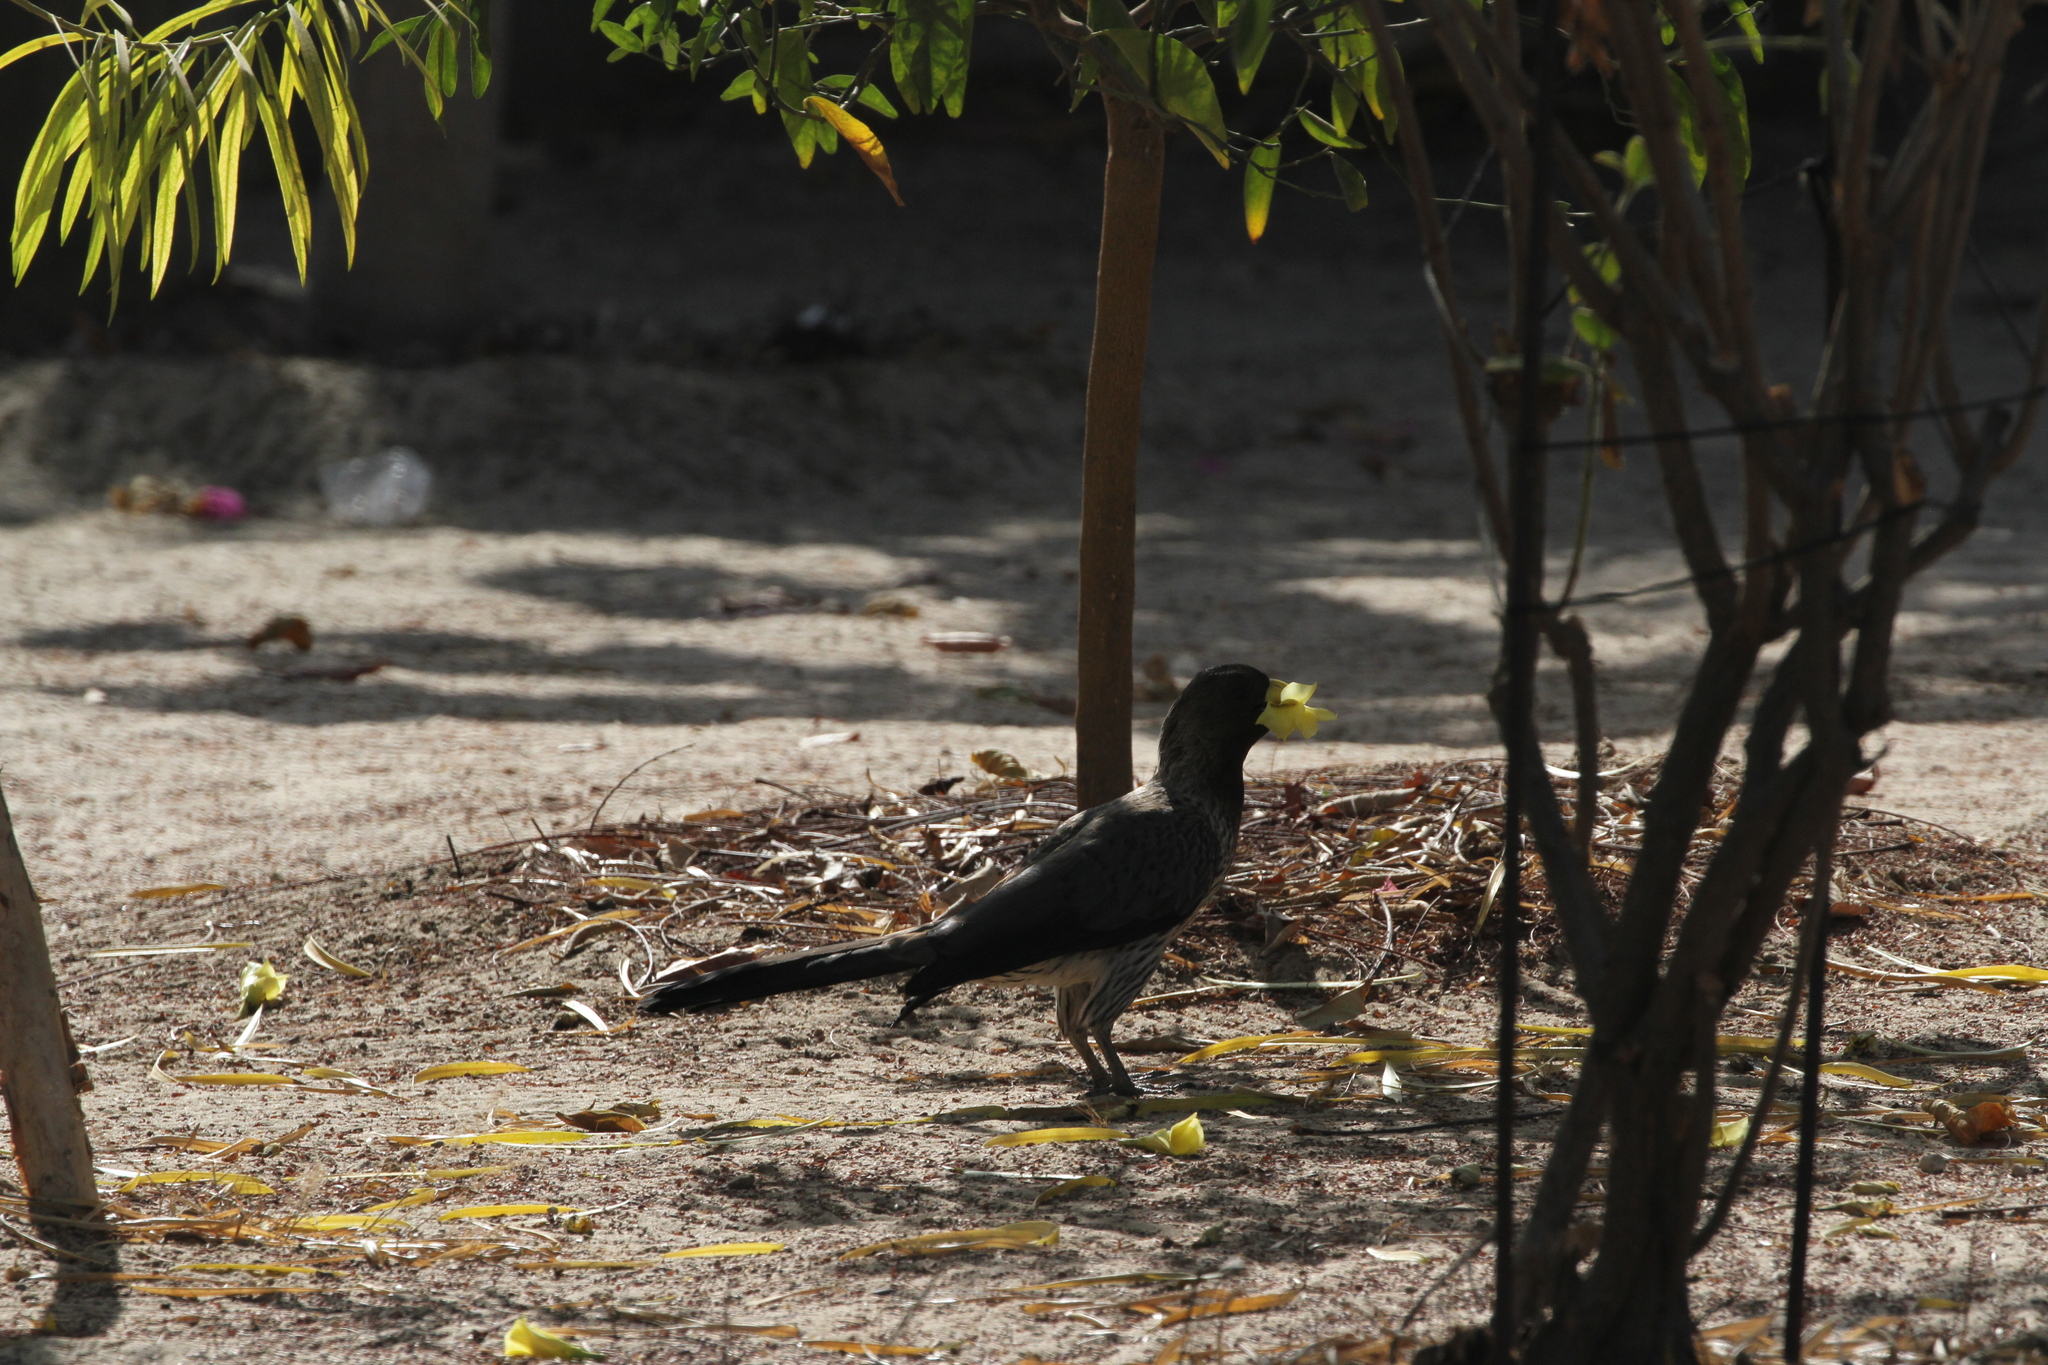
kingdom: Animalia
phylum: Chordata
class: Aves
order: Musophagiformes
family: Musophagidae
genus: Crinifer
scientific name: Crinifer piscator
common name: Western plantain-eater
